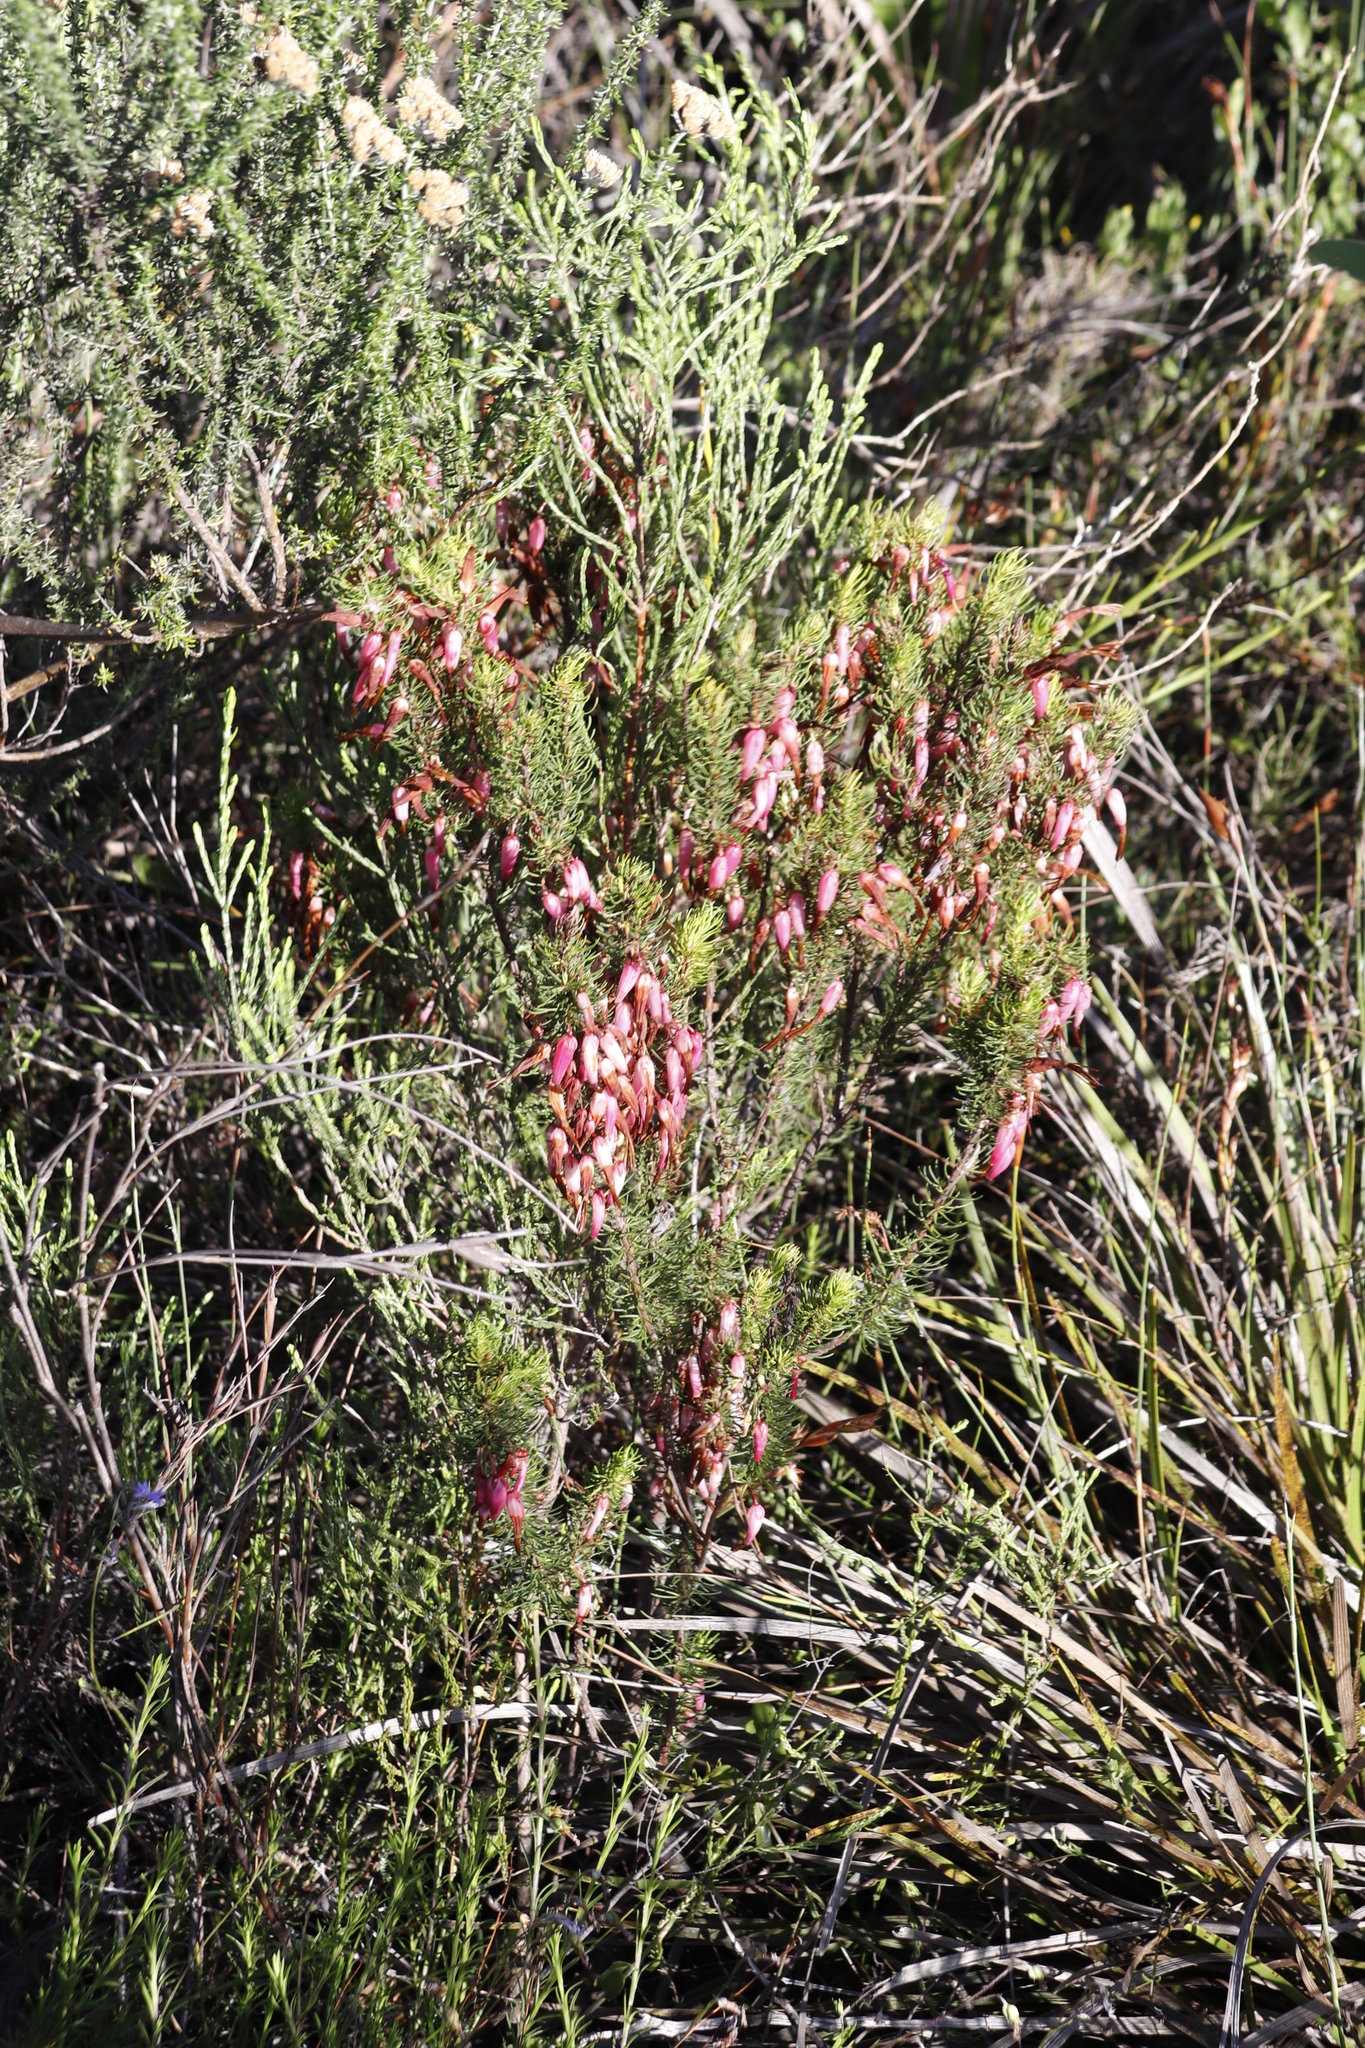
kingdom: Plantae
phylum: Tracheophyta
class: Magnoliopsida
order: Ericales
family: Ericaceae
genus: Erica
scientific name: Erica plukenetii
